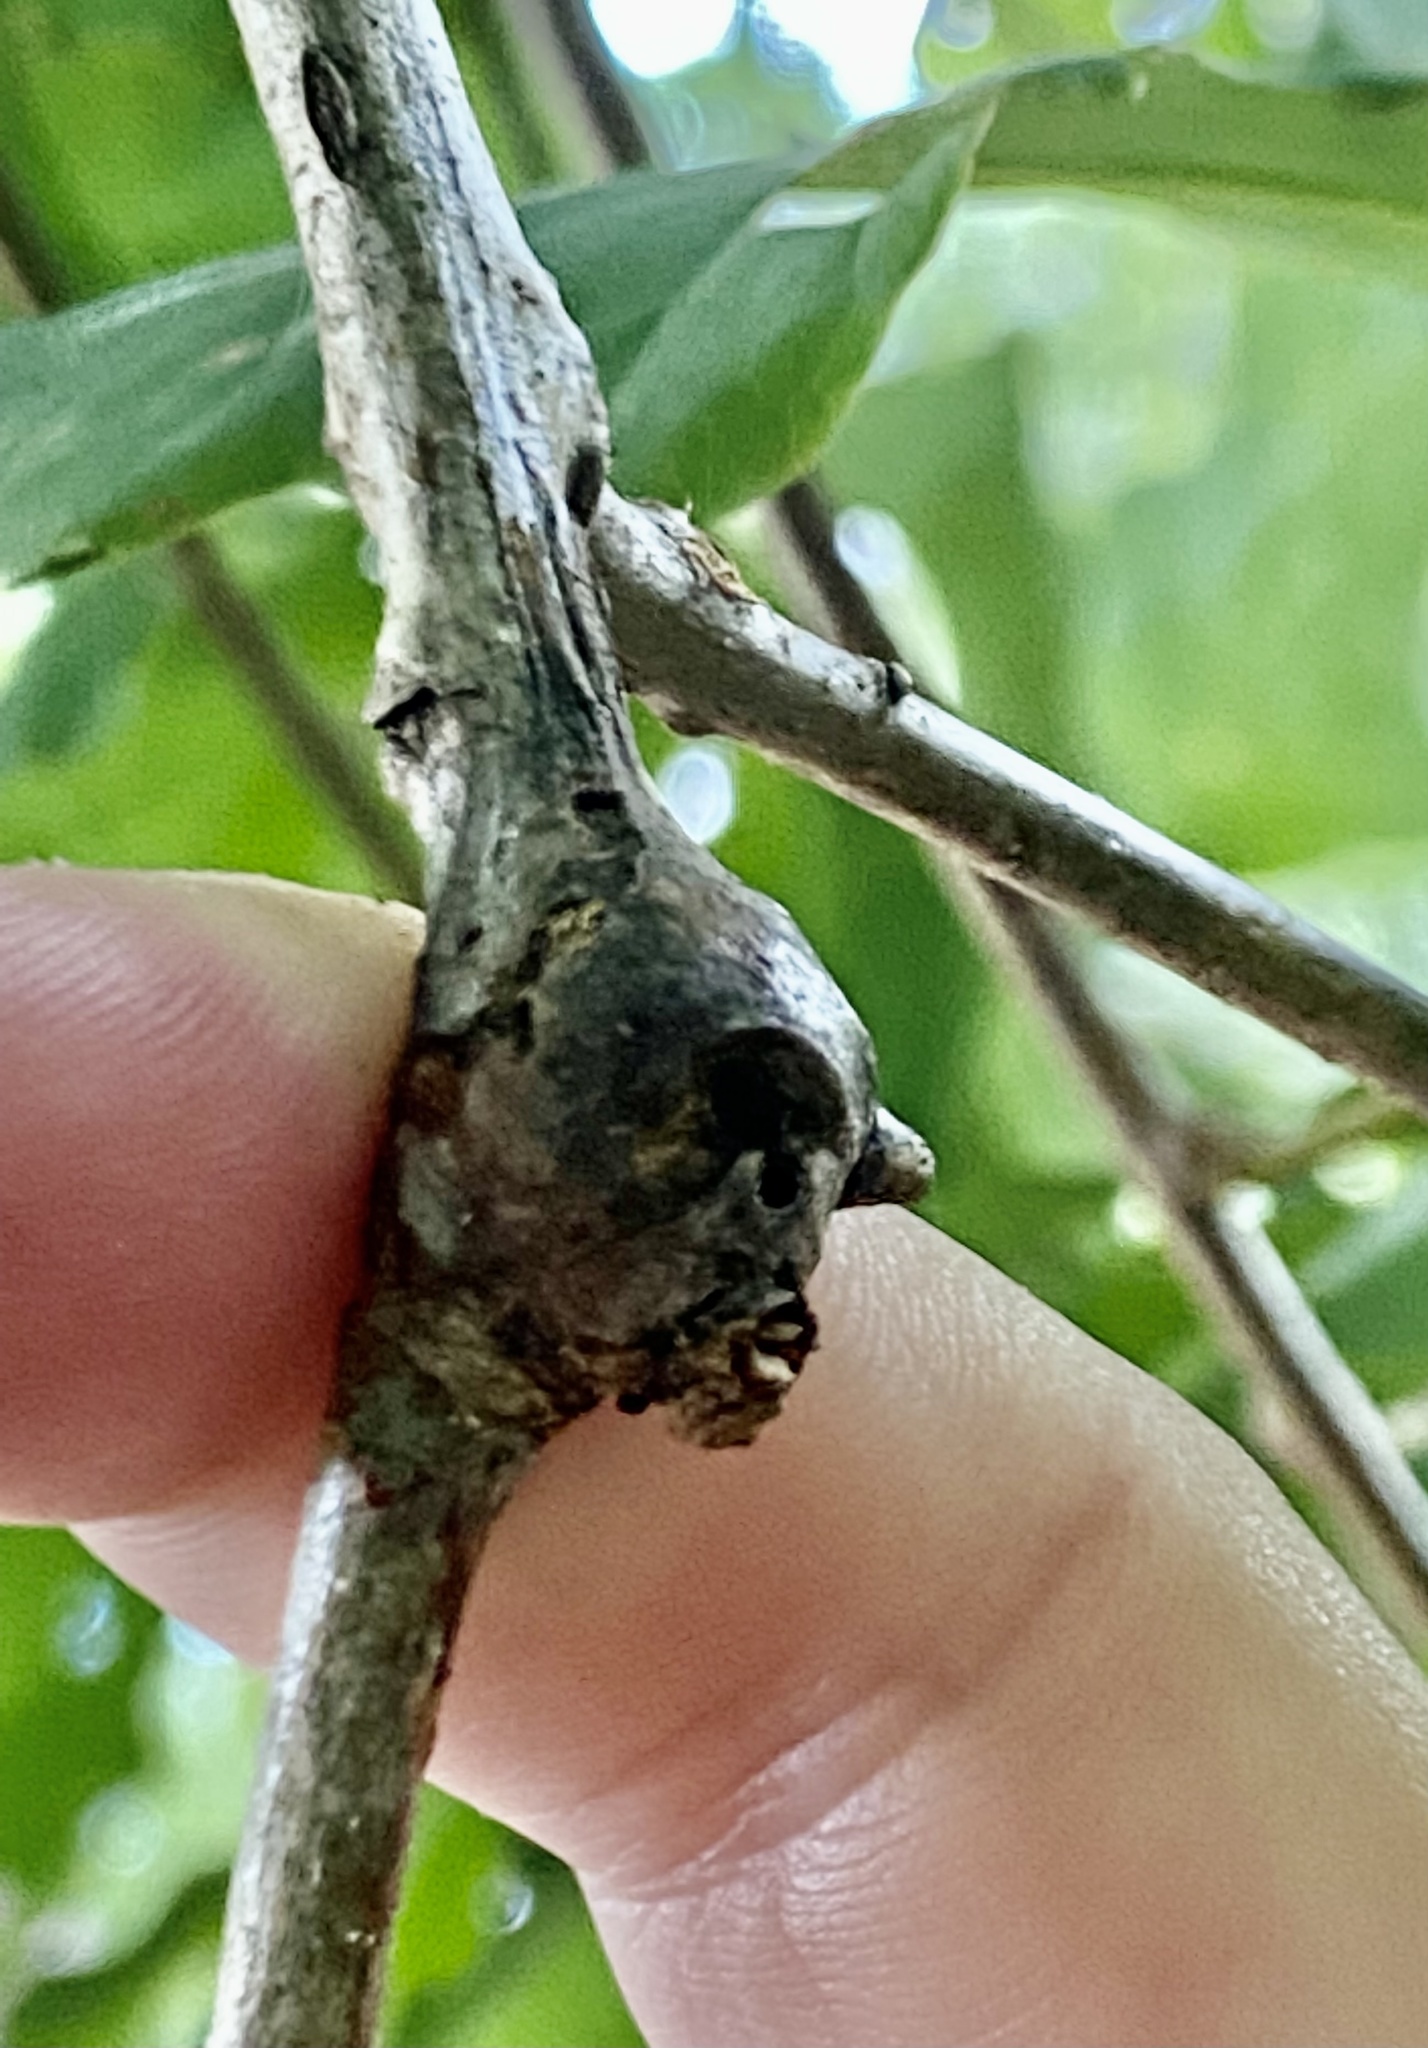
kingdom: Animalia
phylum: Arthropoda
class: Insecta
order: Hymenoptera
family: Cynipidae
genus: Callirhytis
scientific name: Callirhytis clavula
